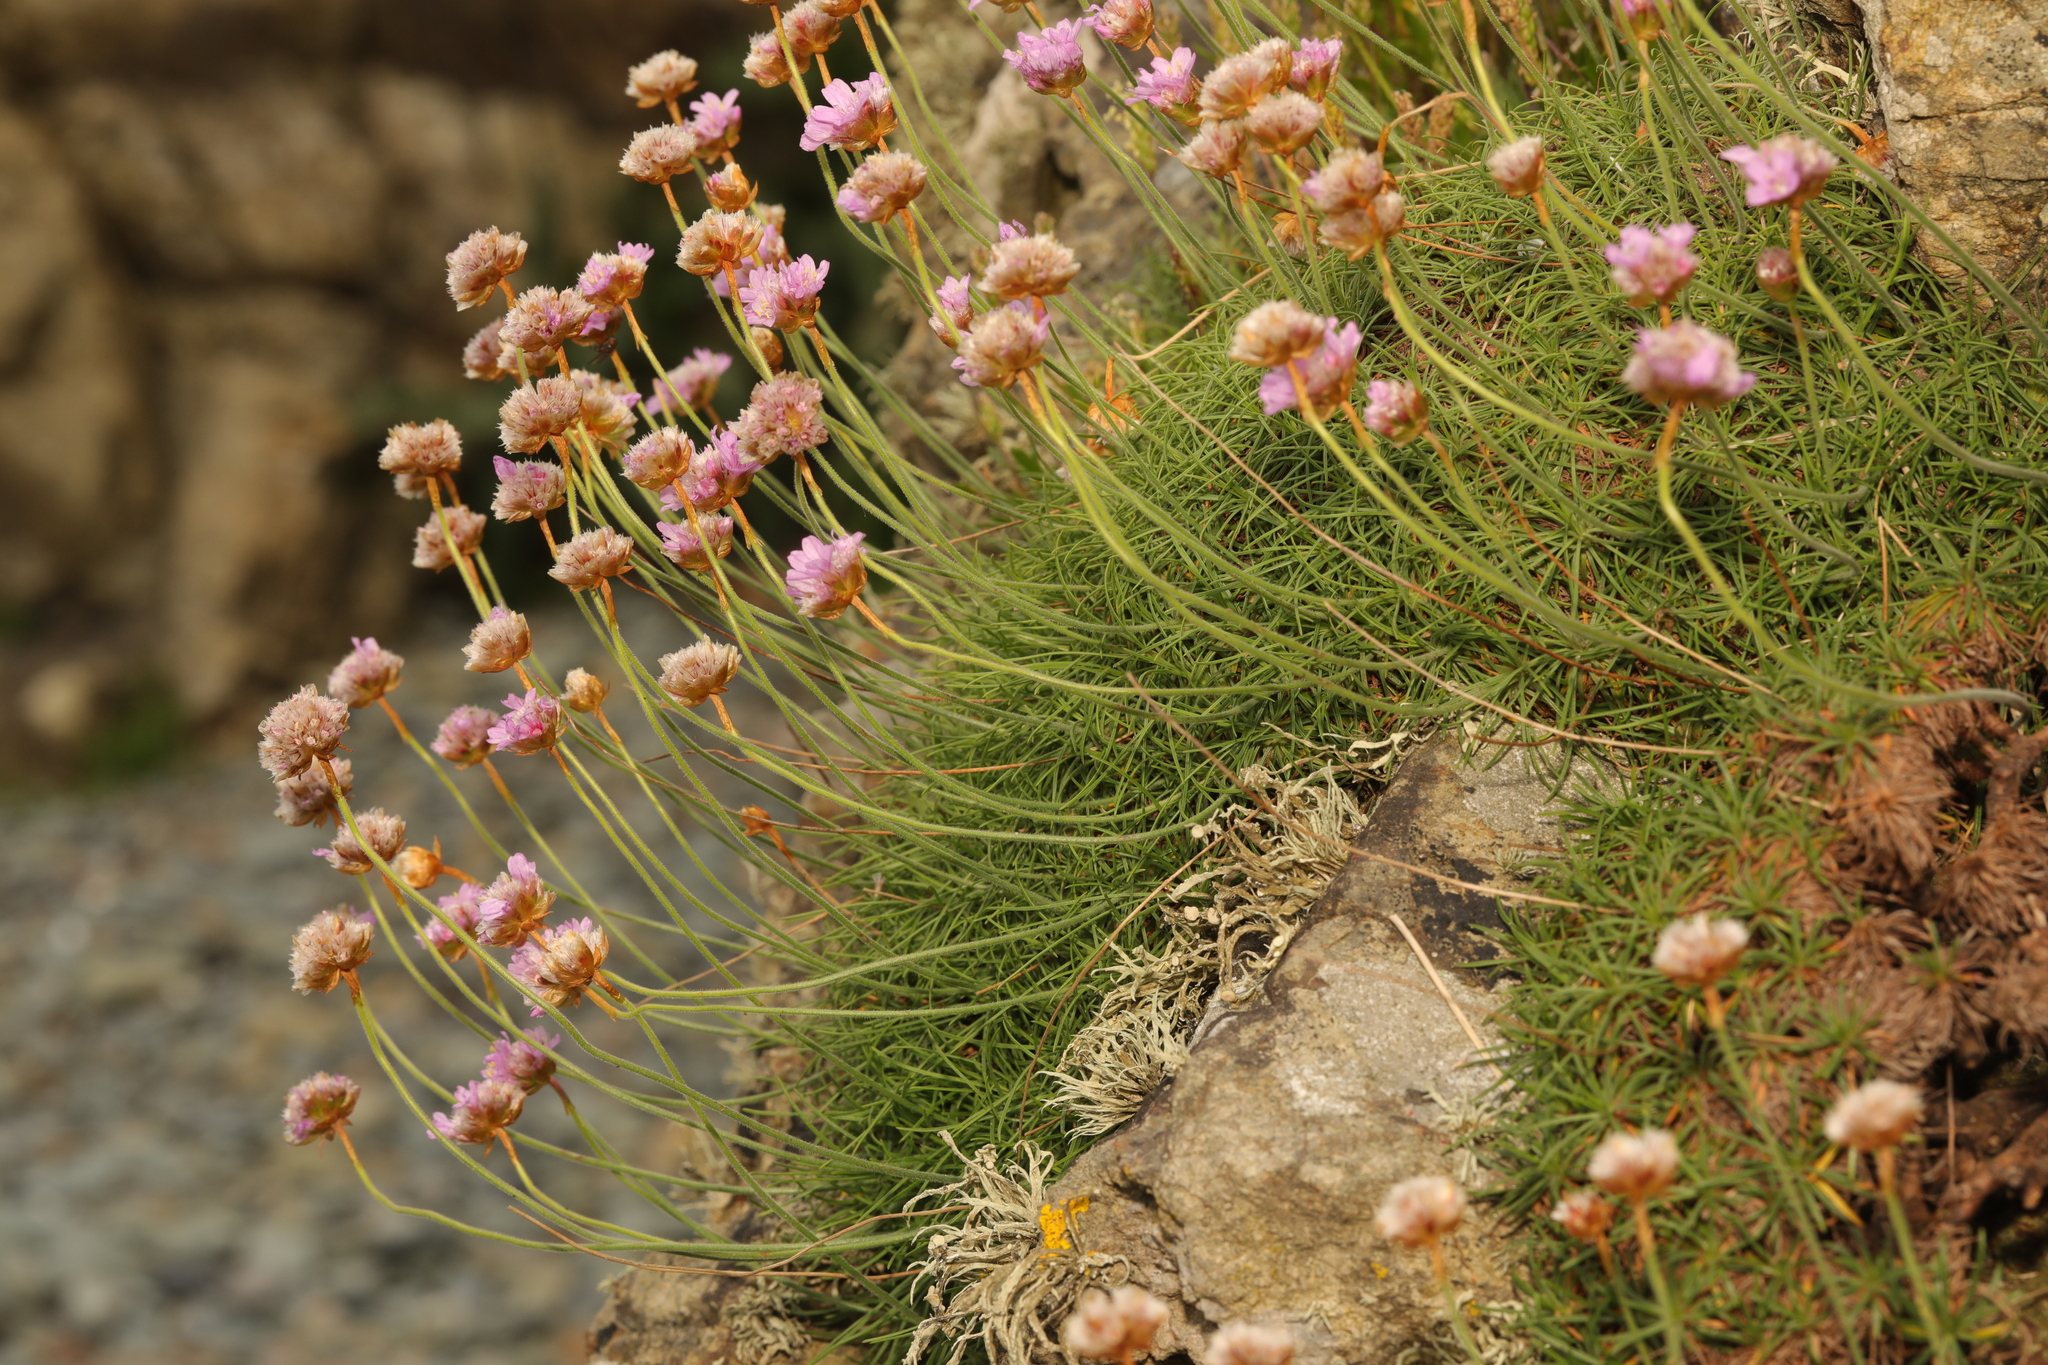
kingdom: Plantae
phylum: Tracheophyta
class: Magnoliopsida
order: Caryophyllales
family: Plumbaginaceae
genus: Armeria
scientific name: Armeria maritima
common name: Thrift
